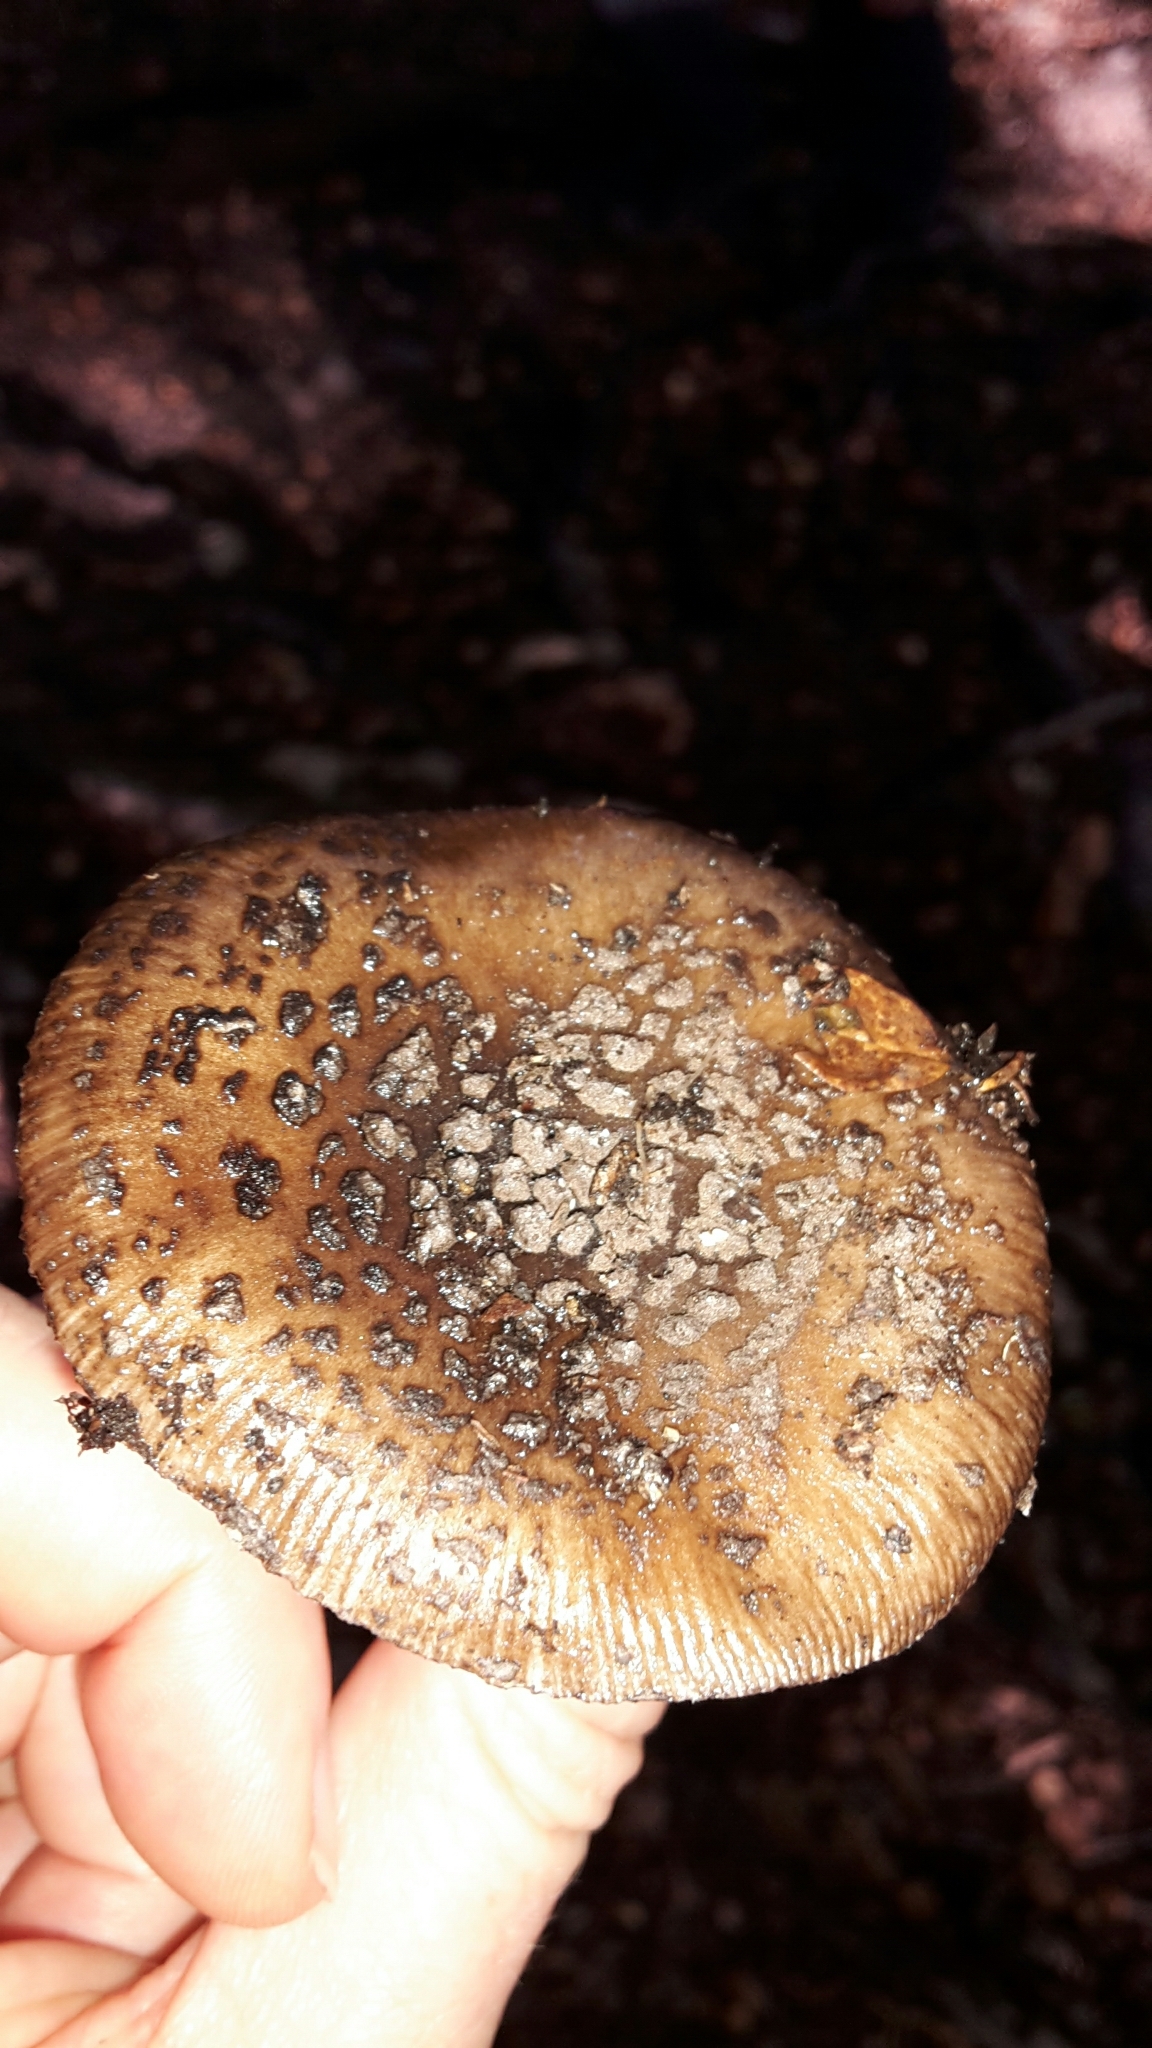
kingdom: Fungi
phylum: Basidiomycota
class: Agaricomycetes
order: Agaricales
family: Amanitaceae
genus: Amanita
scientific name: Amanita nigrescens
